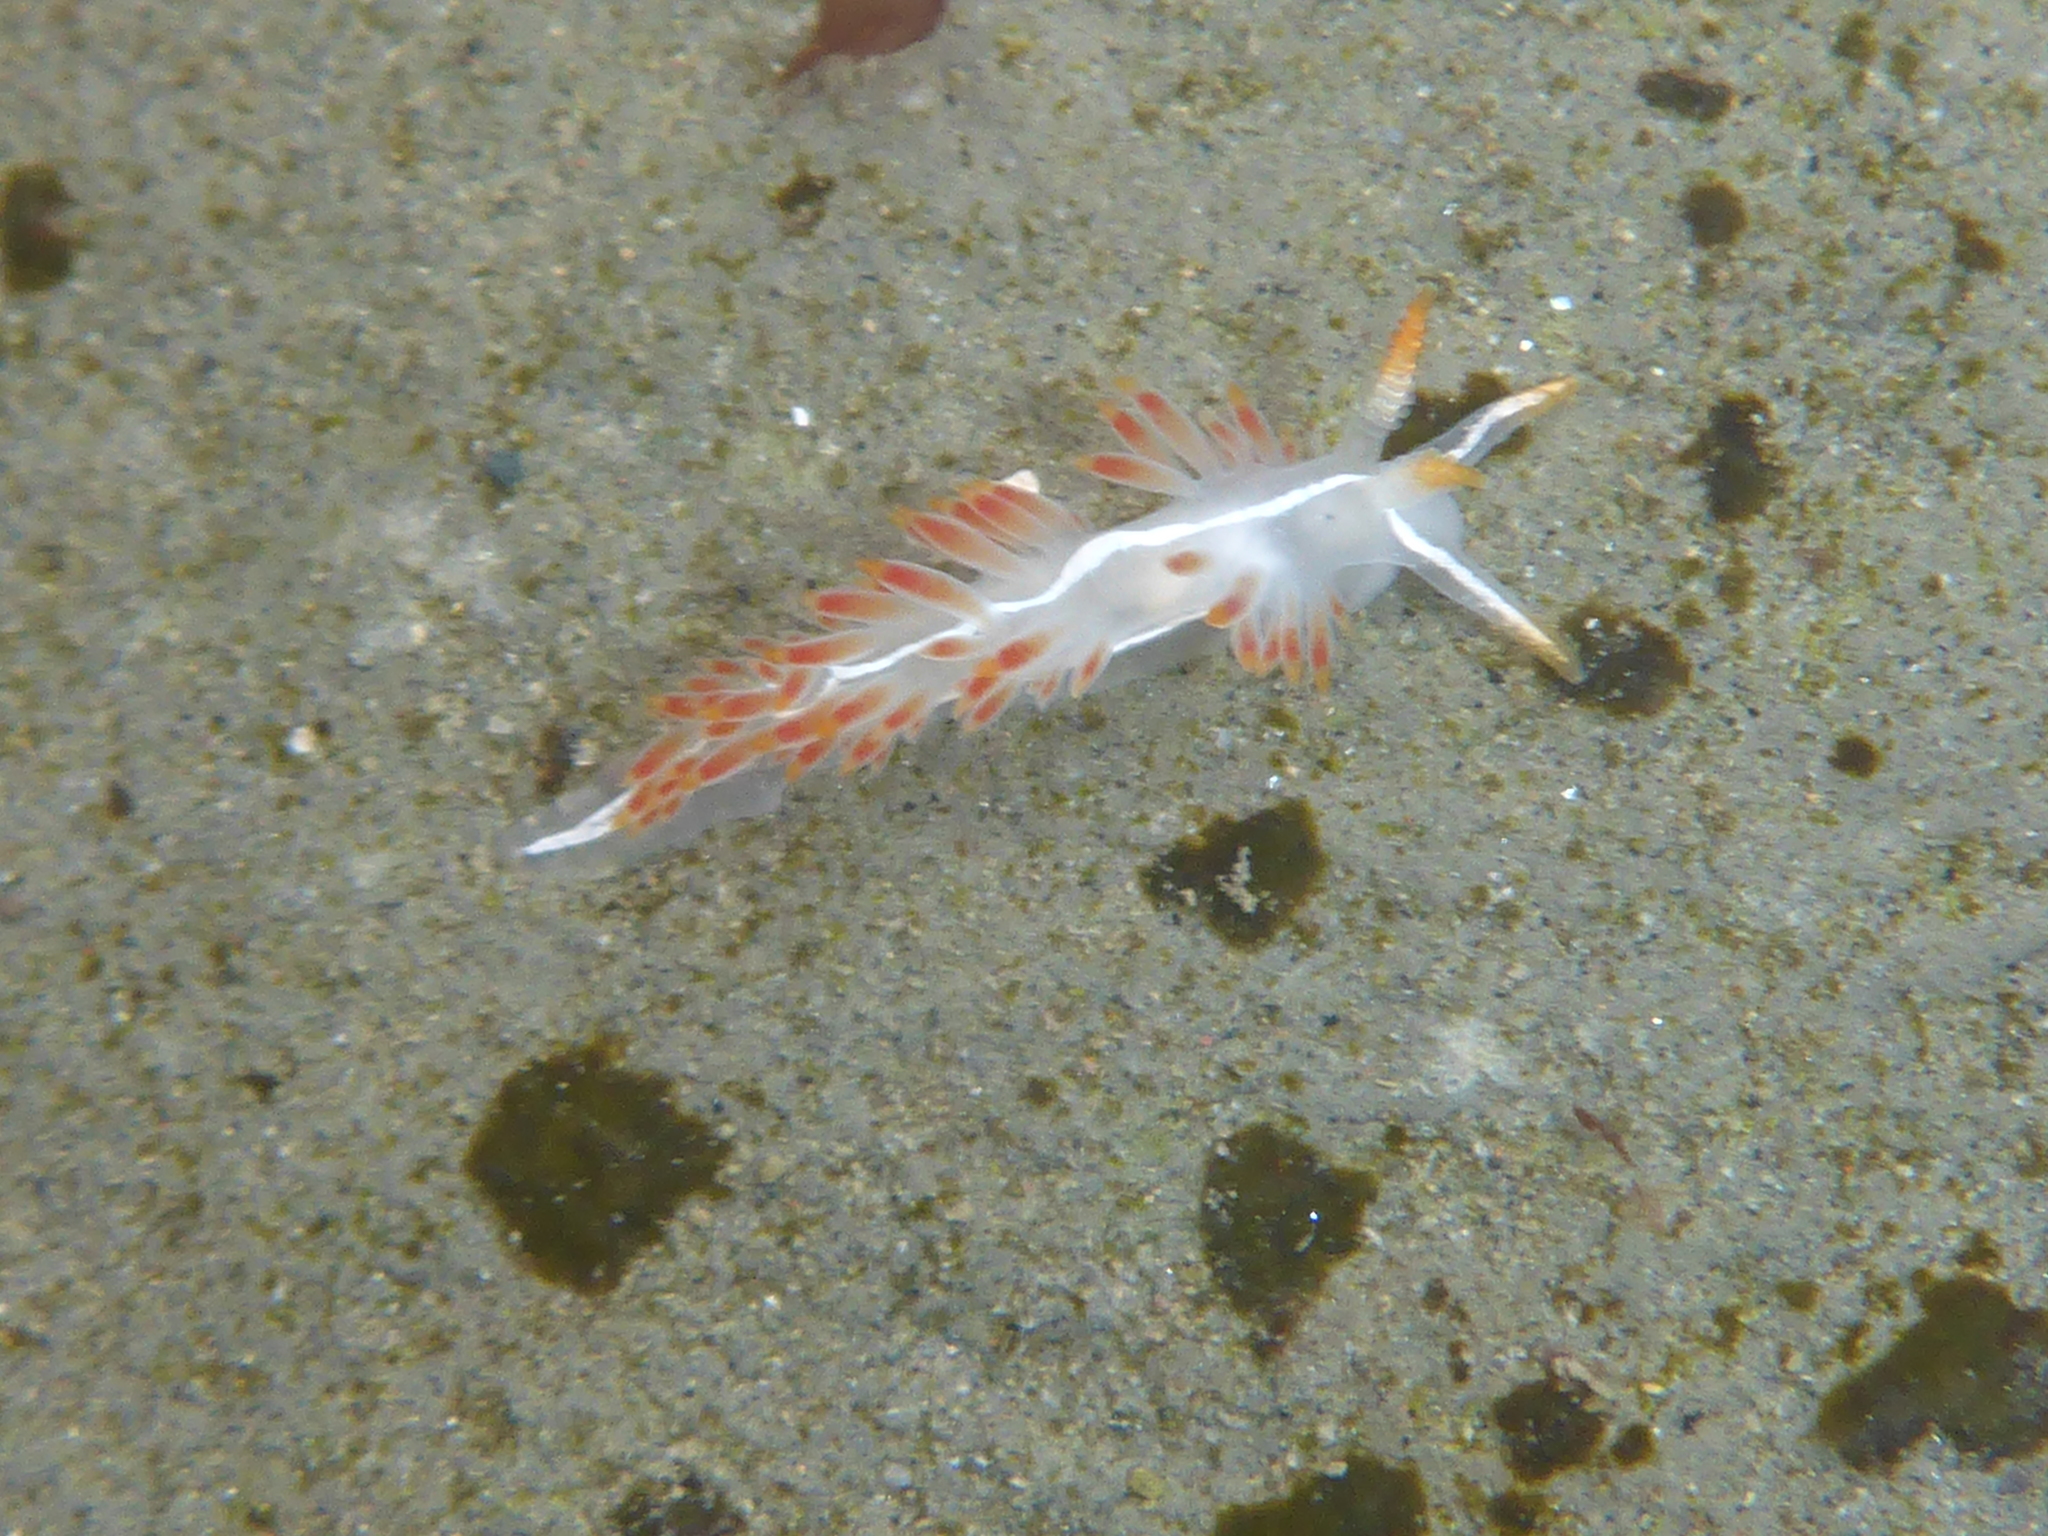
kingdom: Animalia
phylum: Mollusca
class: Gastropoda
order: Nudibranchia
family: Coryphellidae
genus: Coryphella
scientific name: Coryphella trilineata
